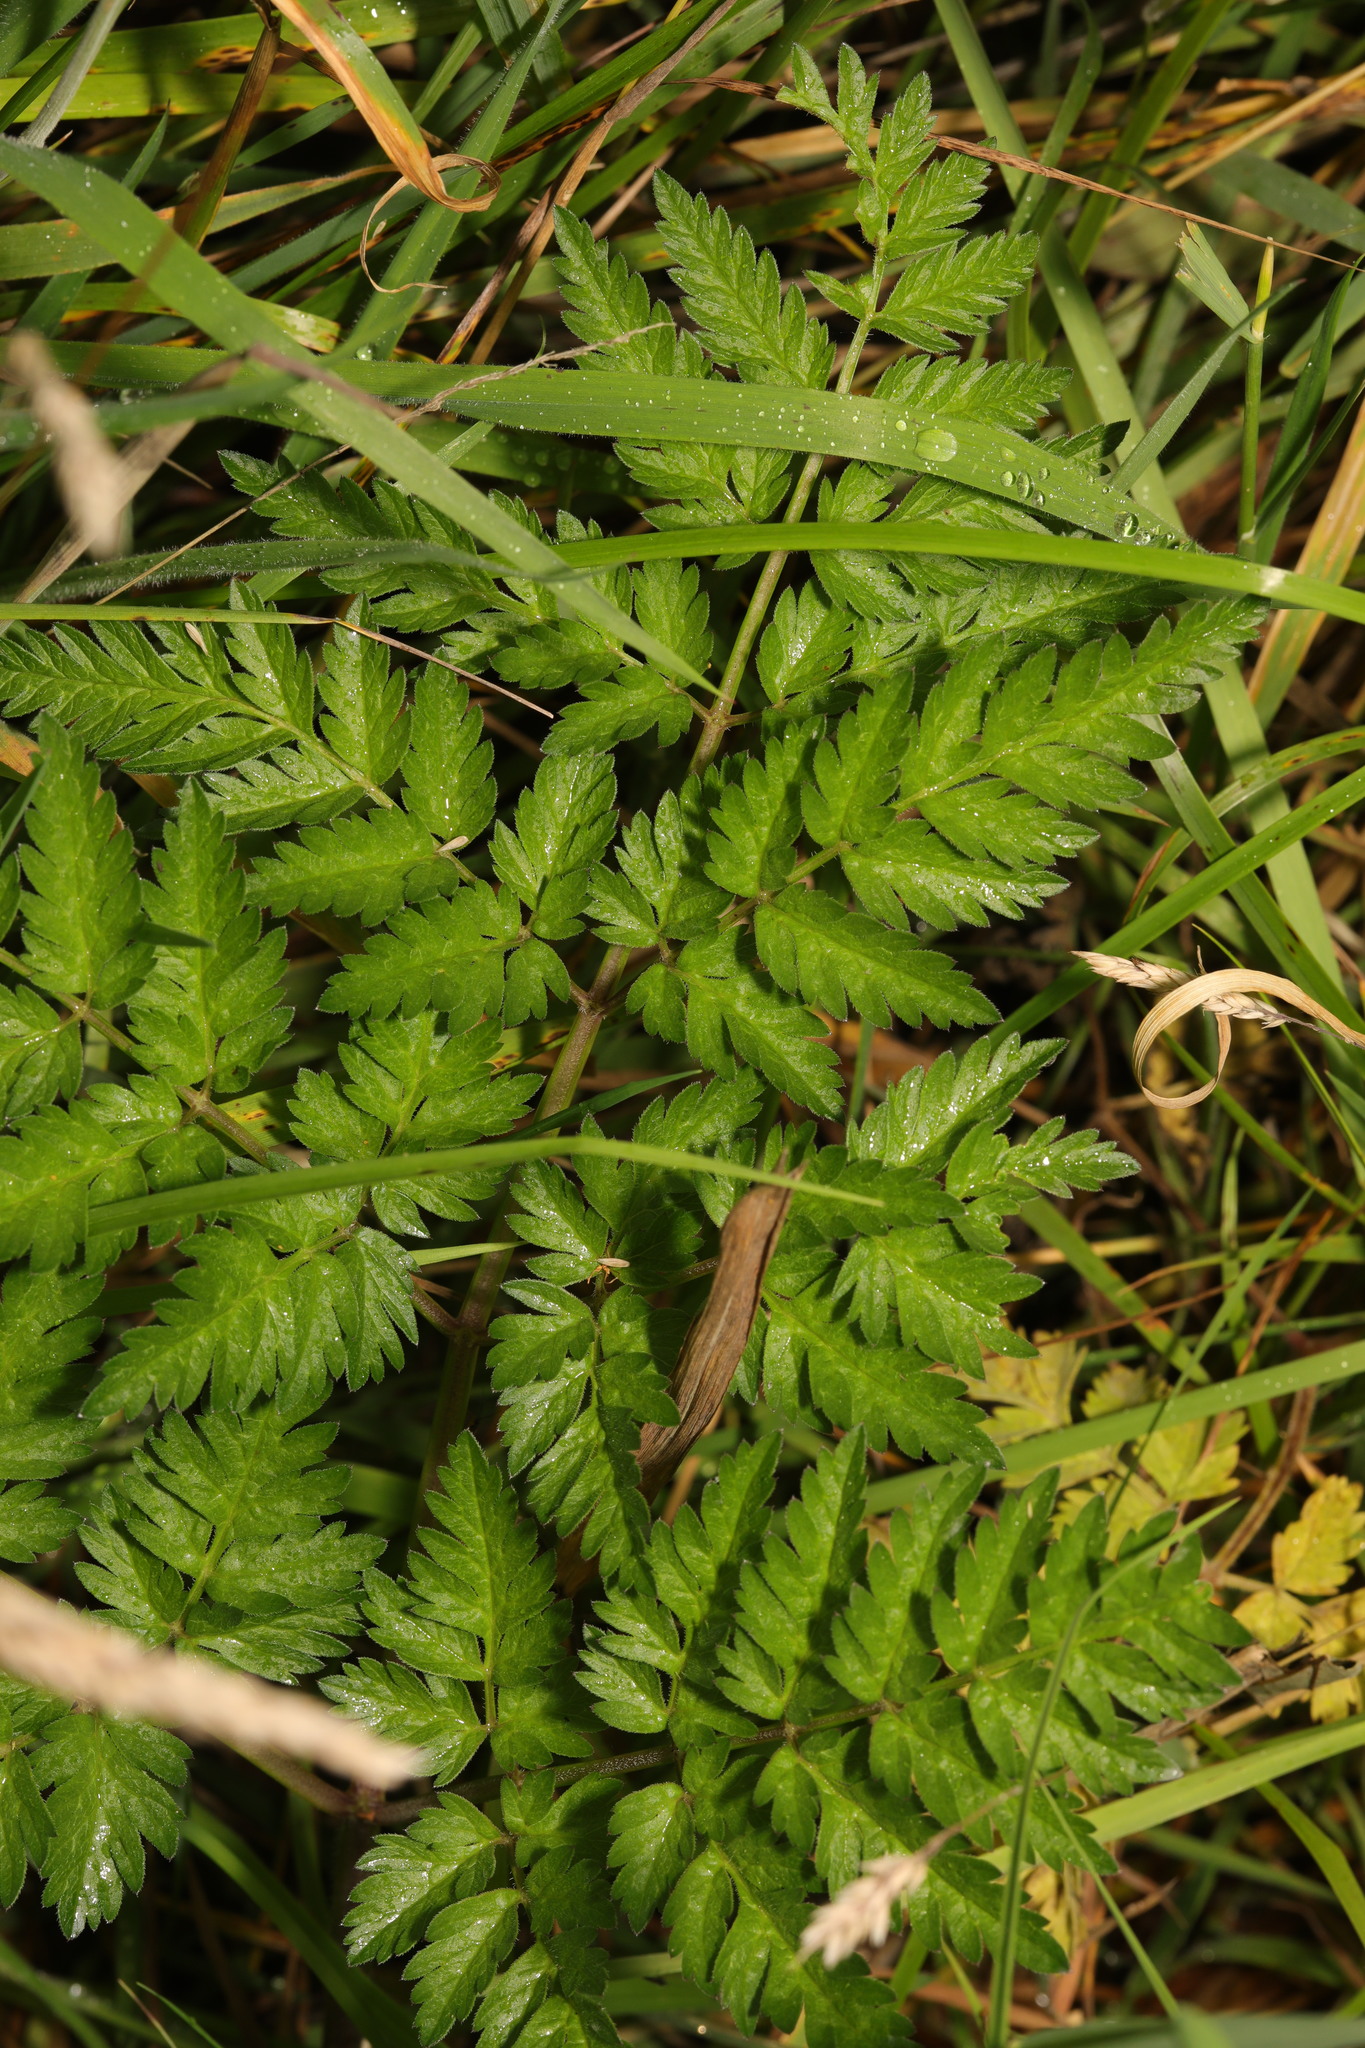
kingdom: Plantae
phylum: Tracheophyta
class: Magnoliopsida
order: Apiales
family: Apiaceae
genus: Anthriscus
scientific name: Anthriscus sylvestris
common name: Cow parsley
